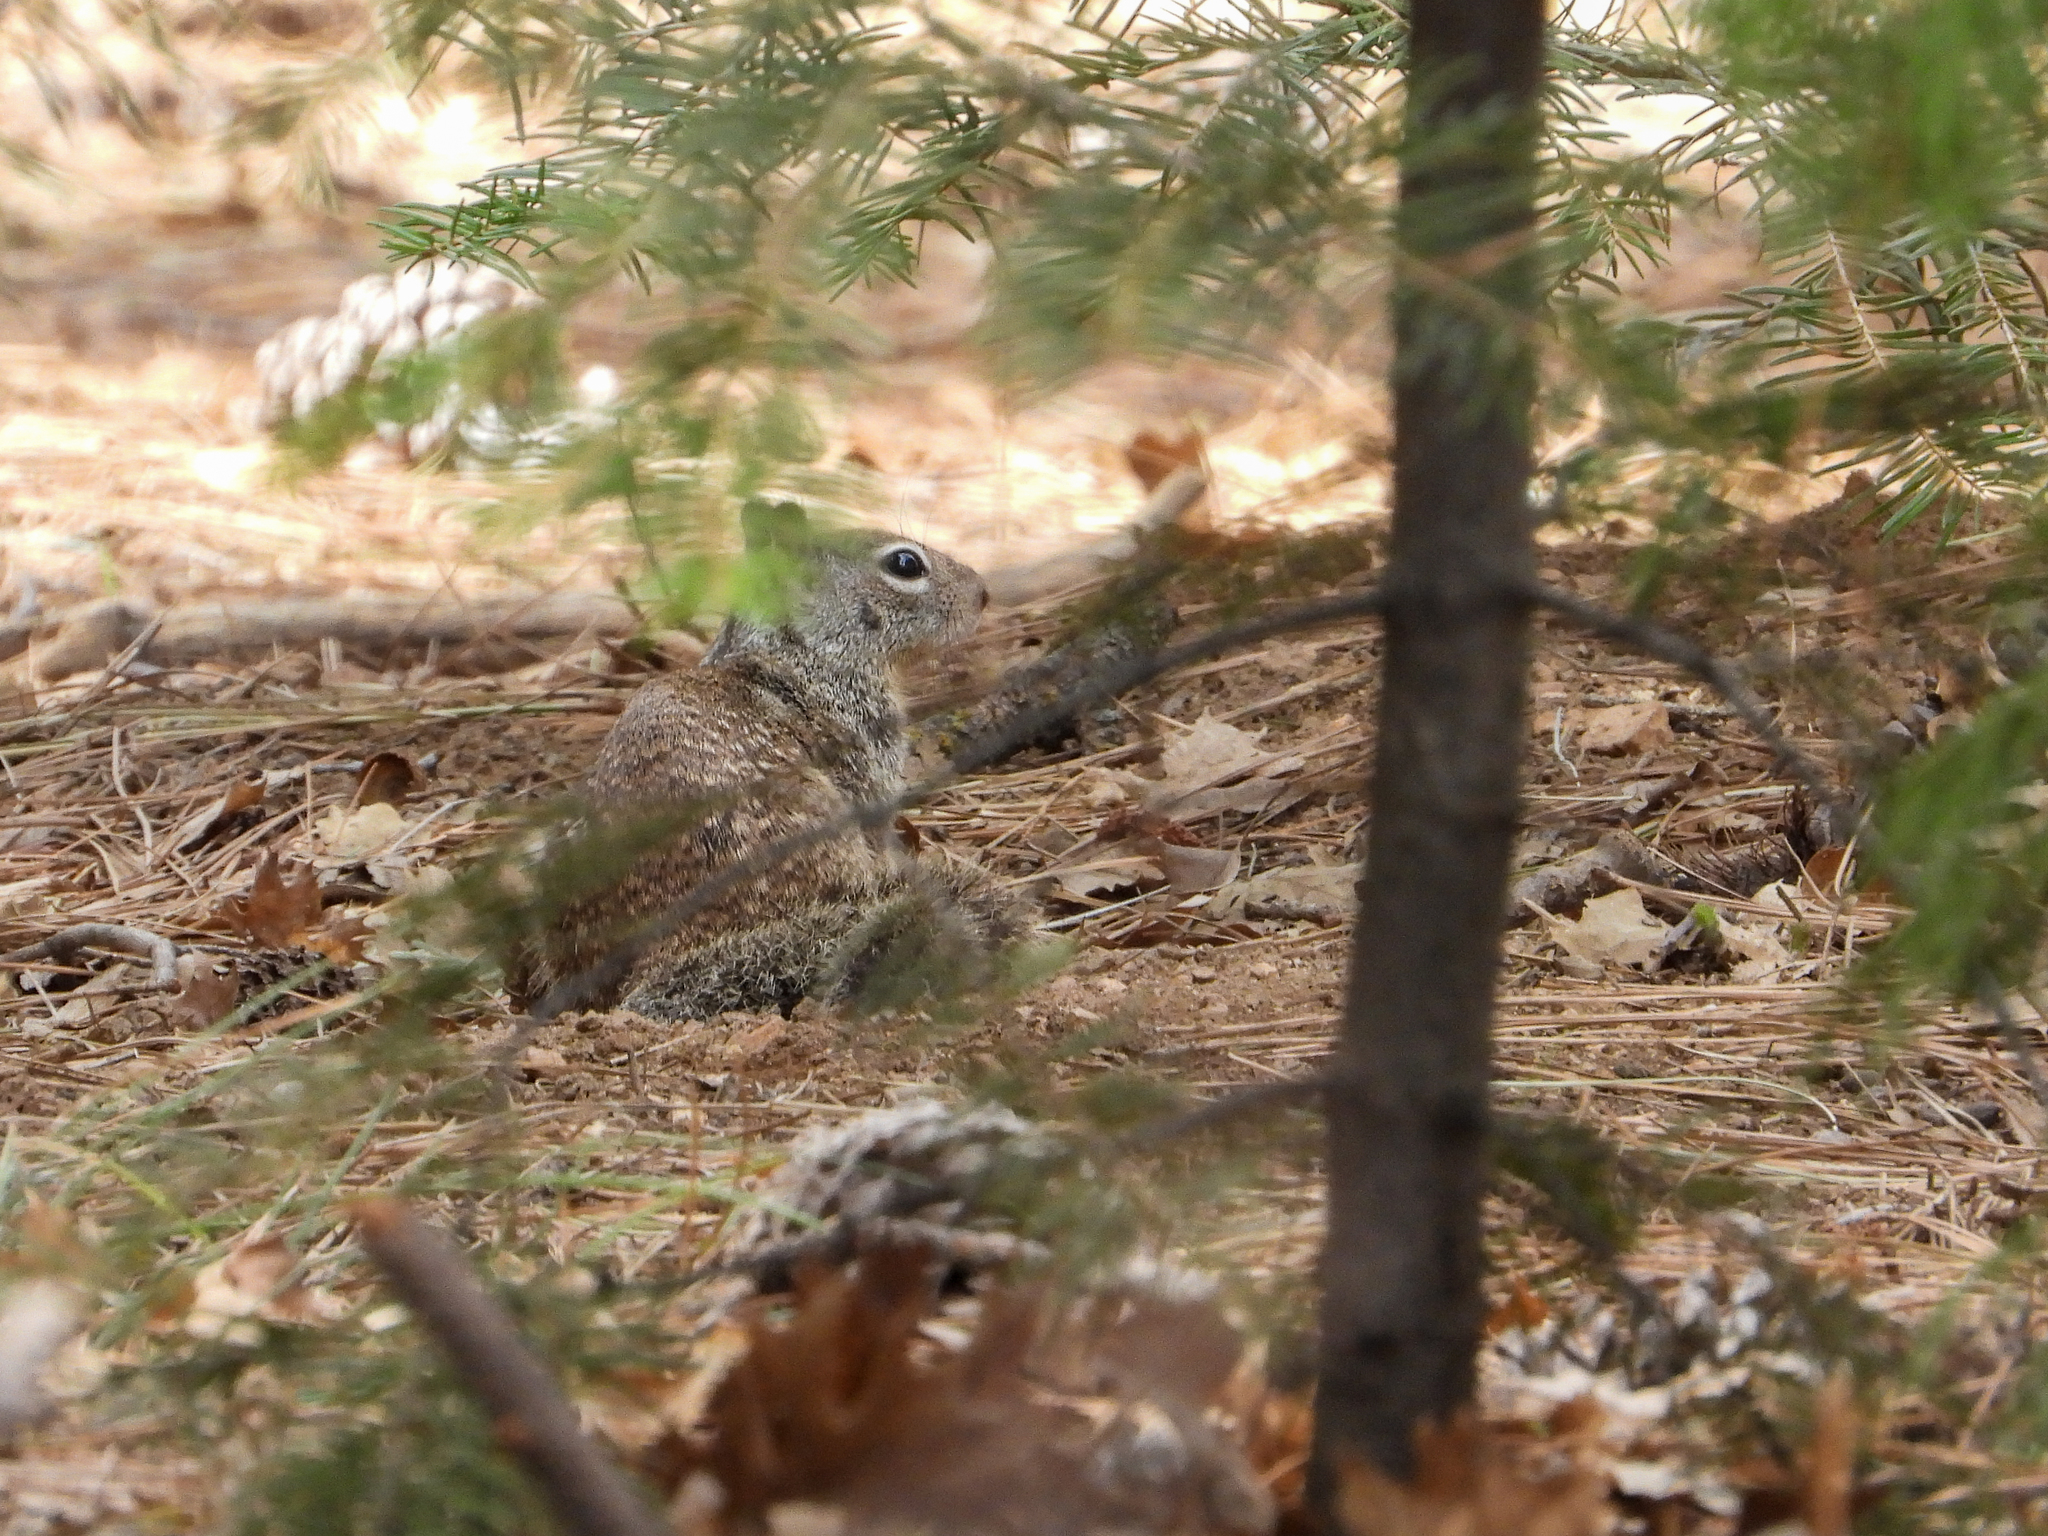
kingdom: Animalia
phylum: Chordata
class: Mammalia
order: Rodentia
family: Sciuridae
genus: Otospermophilus
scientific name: Otospermophilus beecheyi
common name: California ground squirrel
